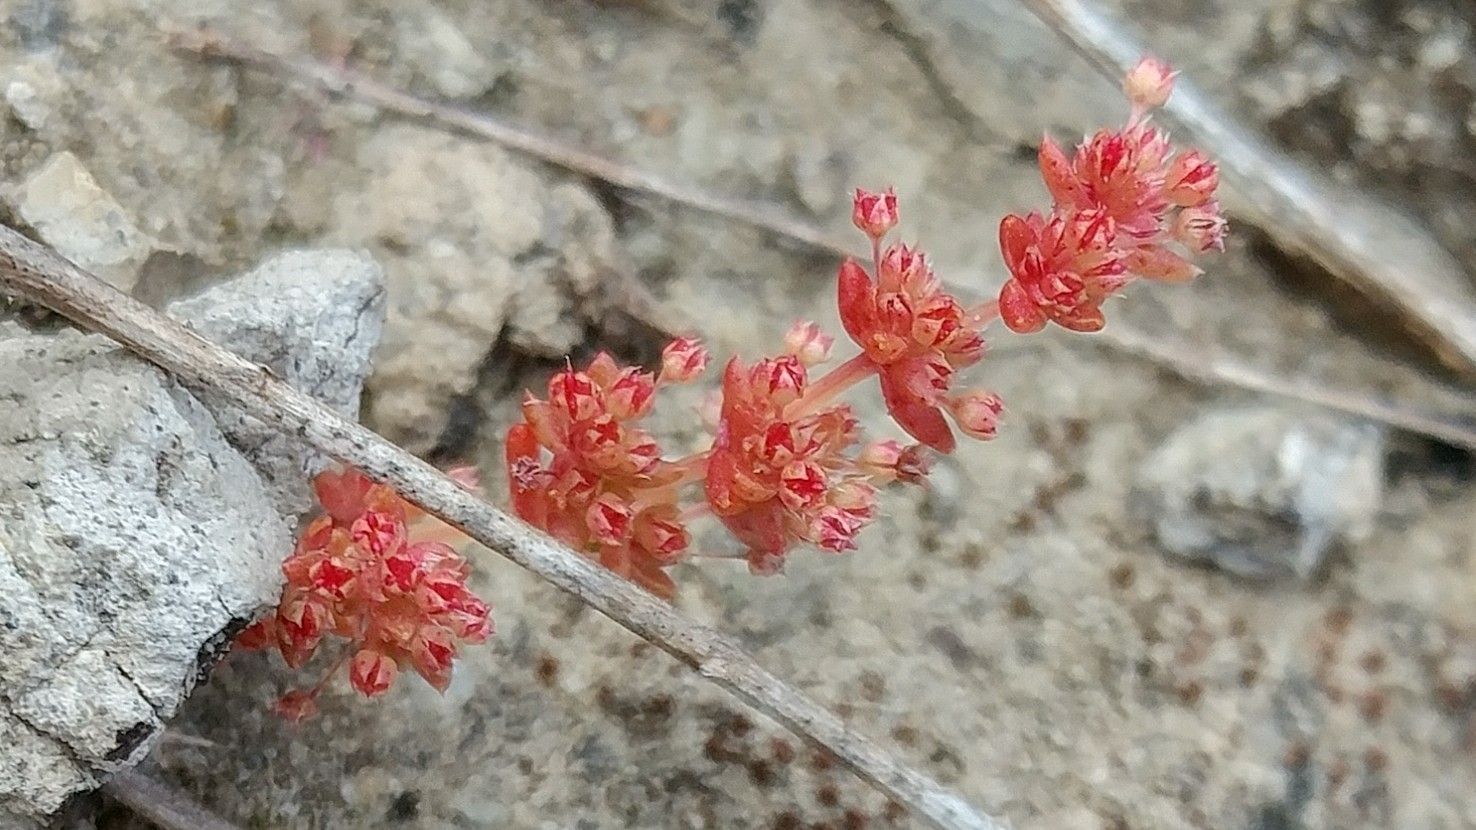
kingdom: Plantae
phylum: Tracheophyta
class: Magnoliopsida
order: Saxifragales
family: Crassulaceae
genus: Crassula
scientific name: Crassula connata
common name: Erect pygmyweed
